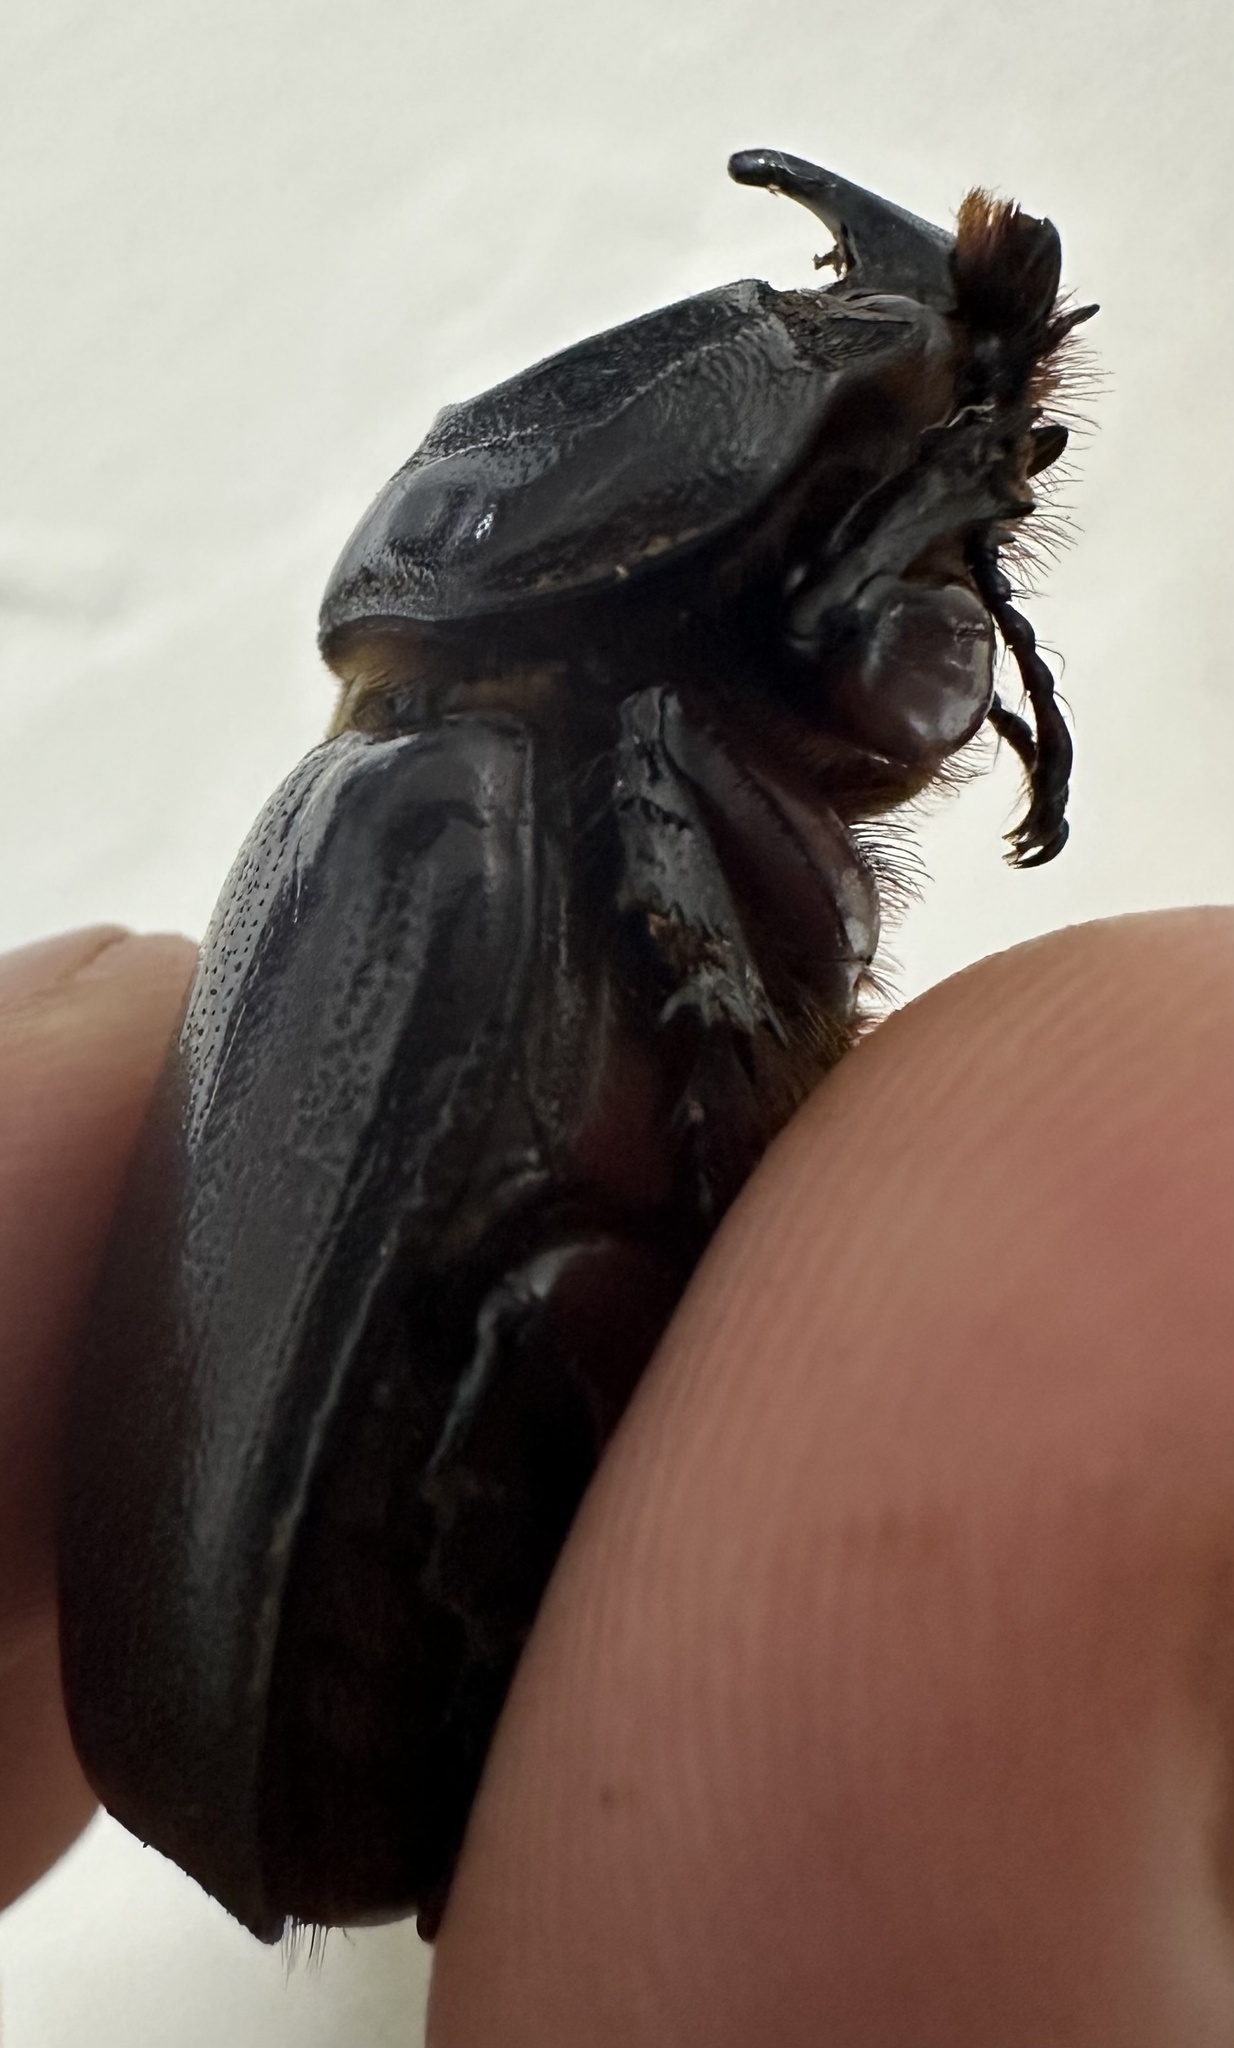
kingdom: Animalia
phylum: Arthropoda
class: Insecta
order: Coleoptera
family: Scarabaeidae
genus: Oryctes
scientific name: Oryctes monoceros
